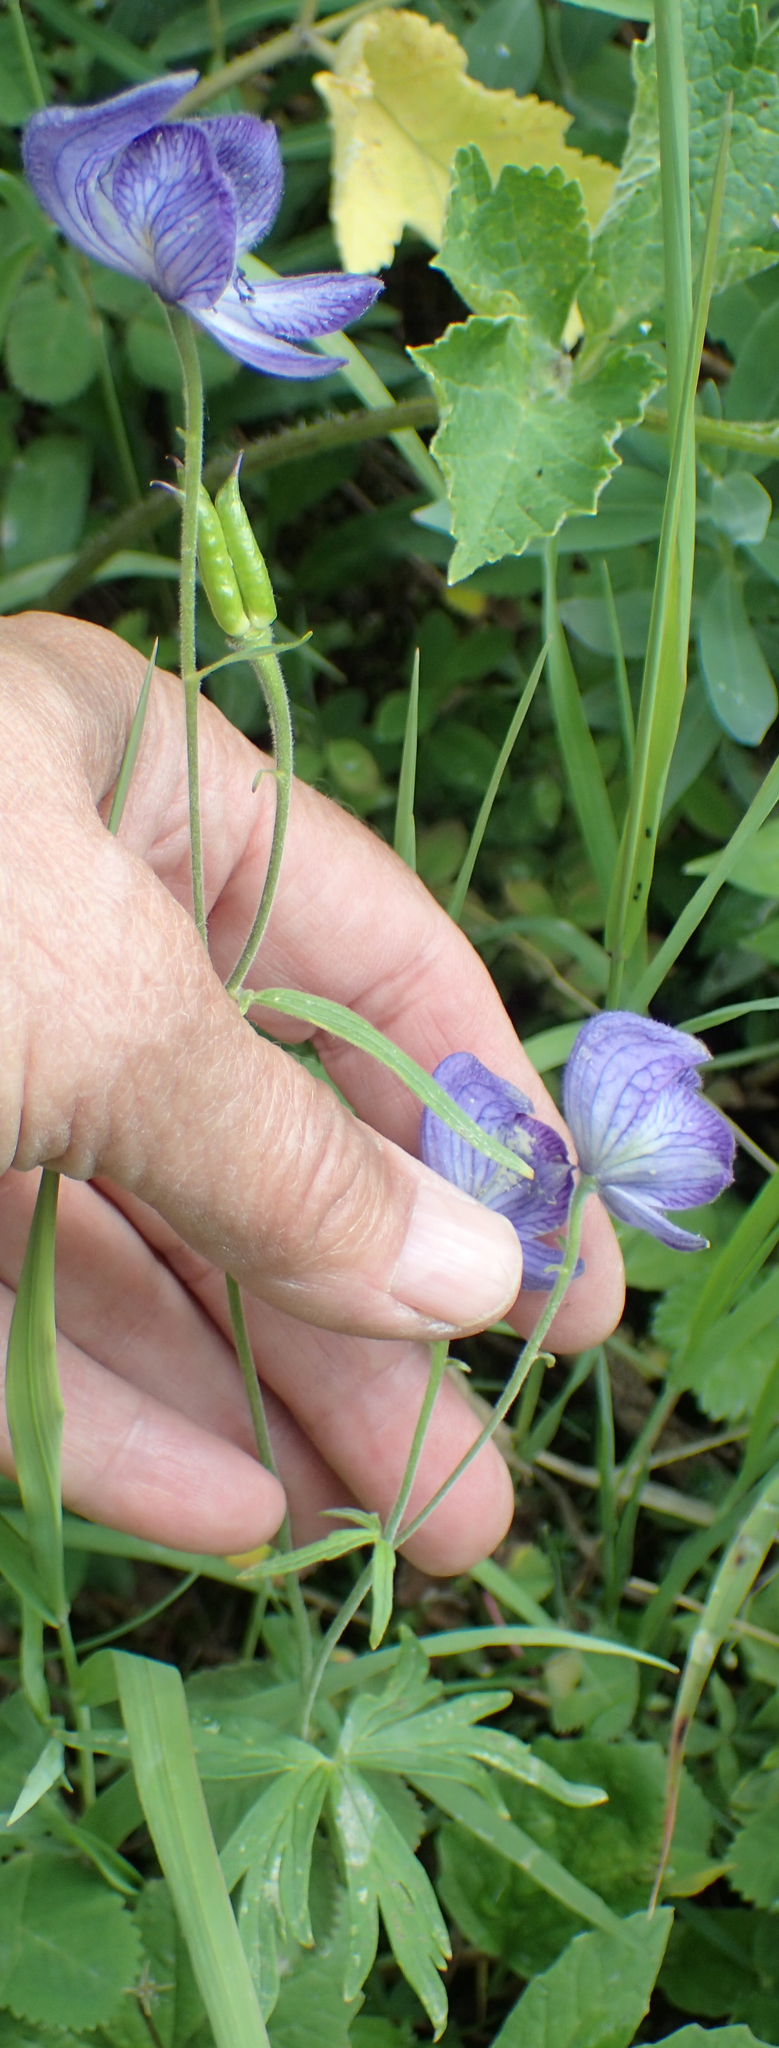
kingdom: Plantae
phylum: Tracheophyta
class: Magnoliopsida
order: Ranunculales
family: Ranunculaceae
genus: Aconitum
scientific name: Aconitum delphiniifolium
